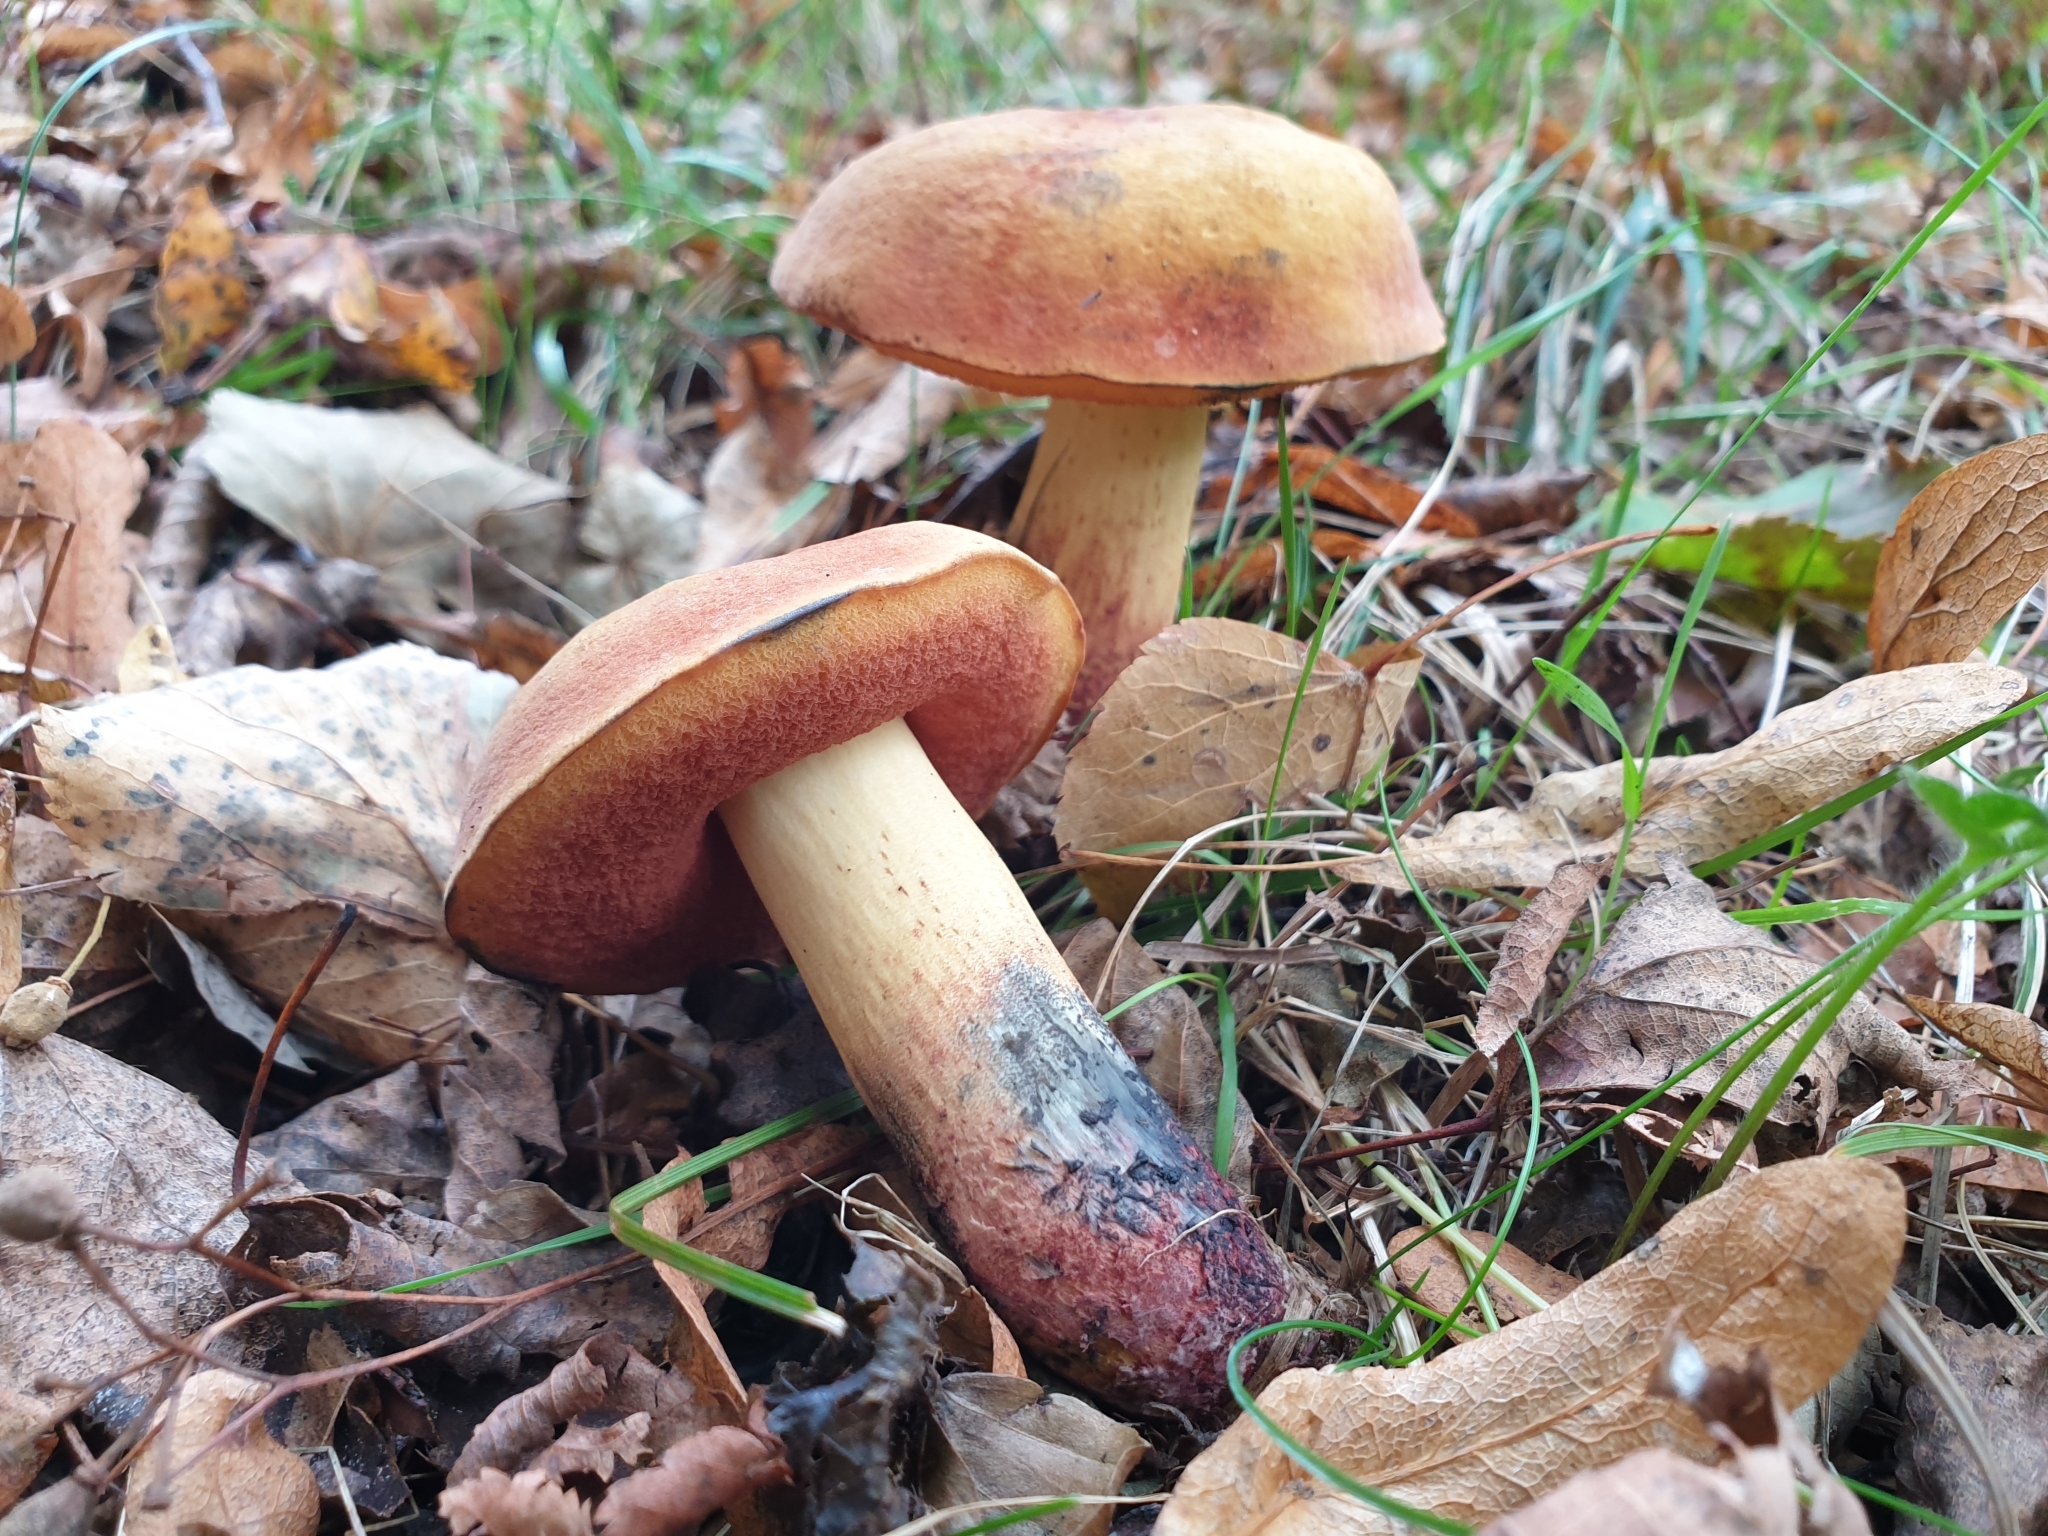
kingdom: Fungi
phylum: Basidiomycota
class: Agaricomycetes
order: Boletales
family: Boletaceae
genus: Suillellus
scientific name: Suillellus queletii
